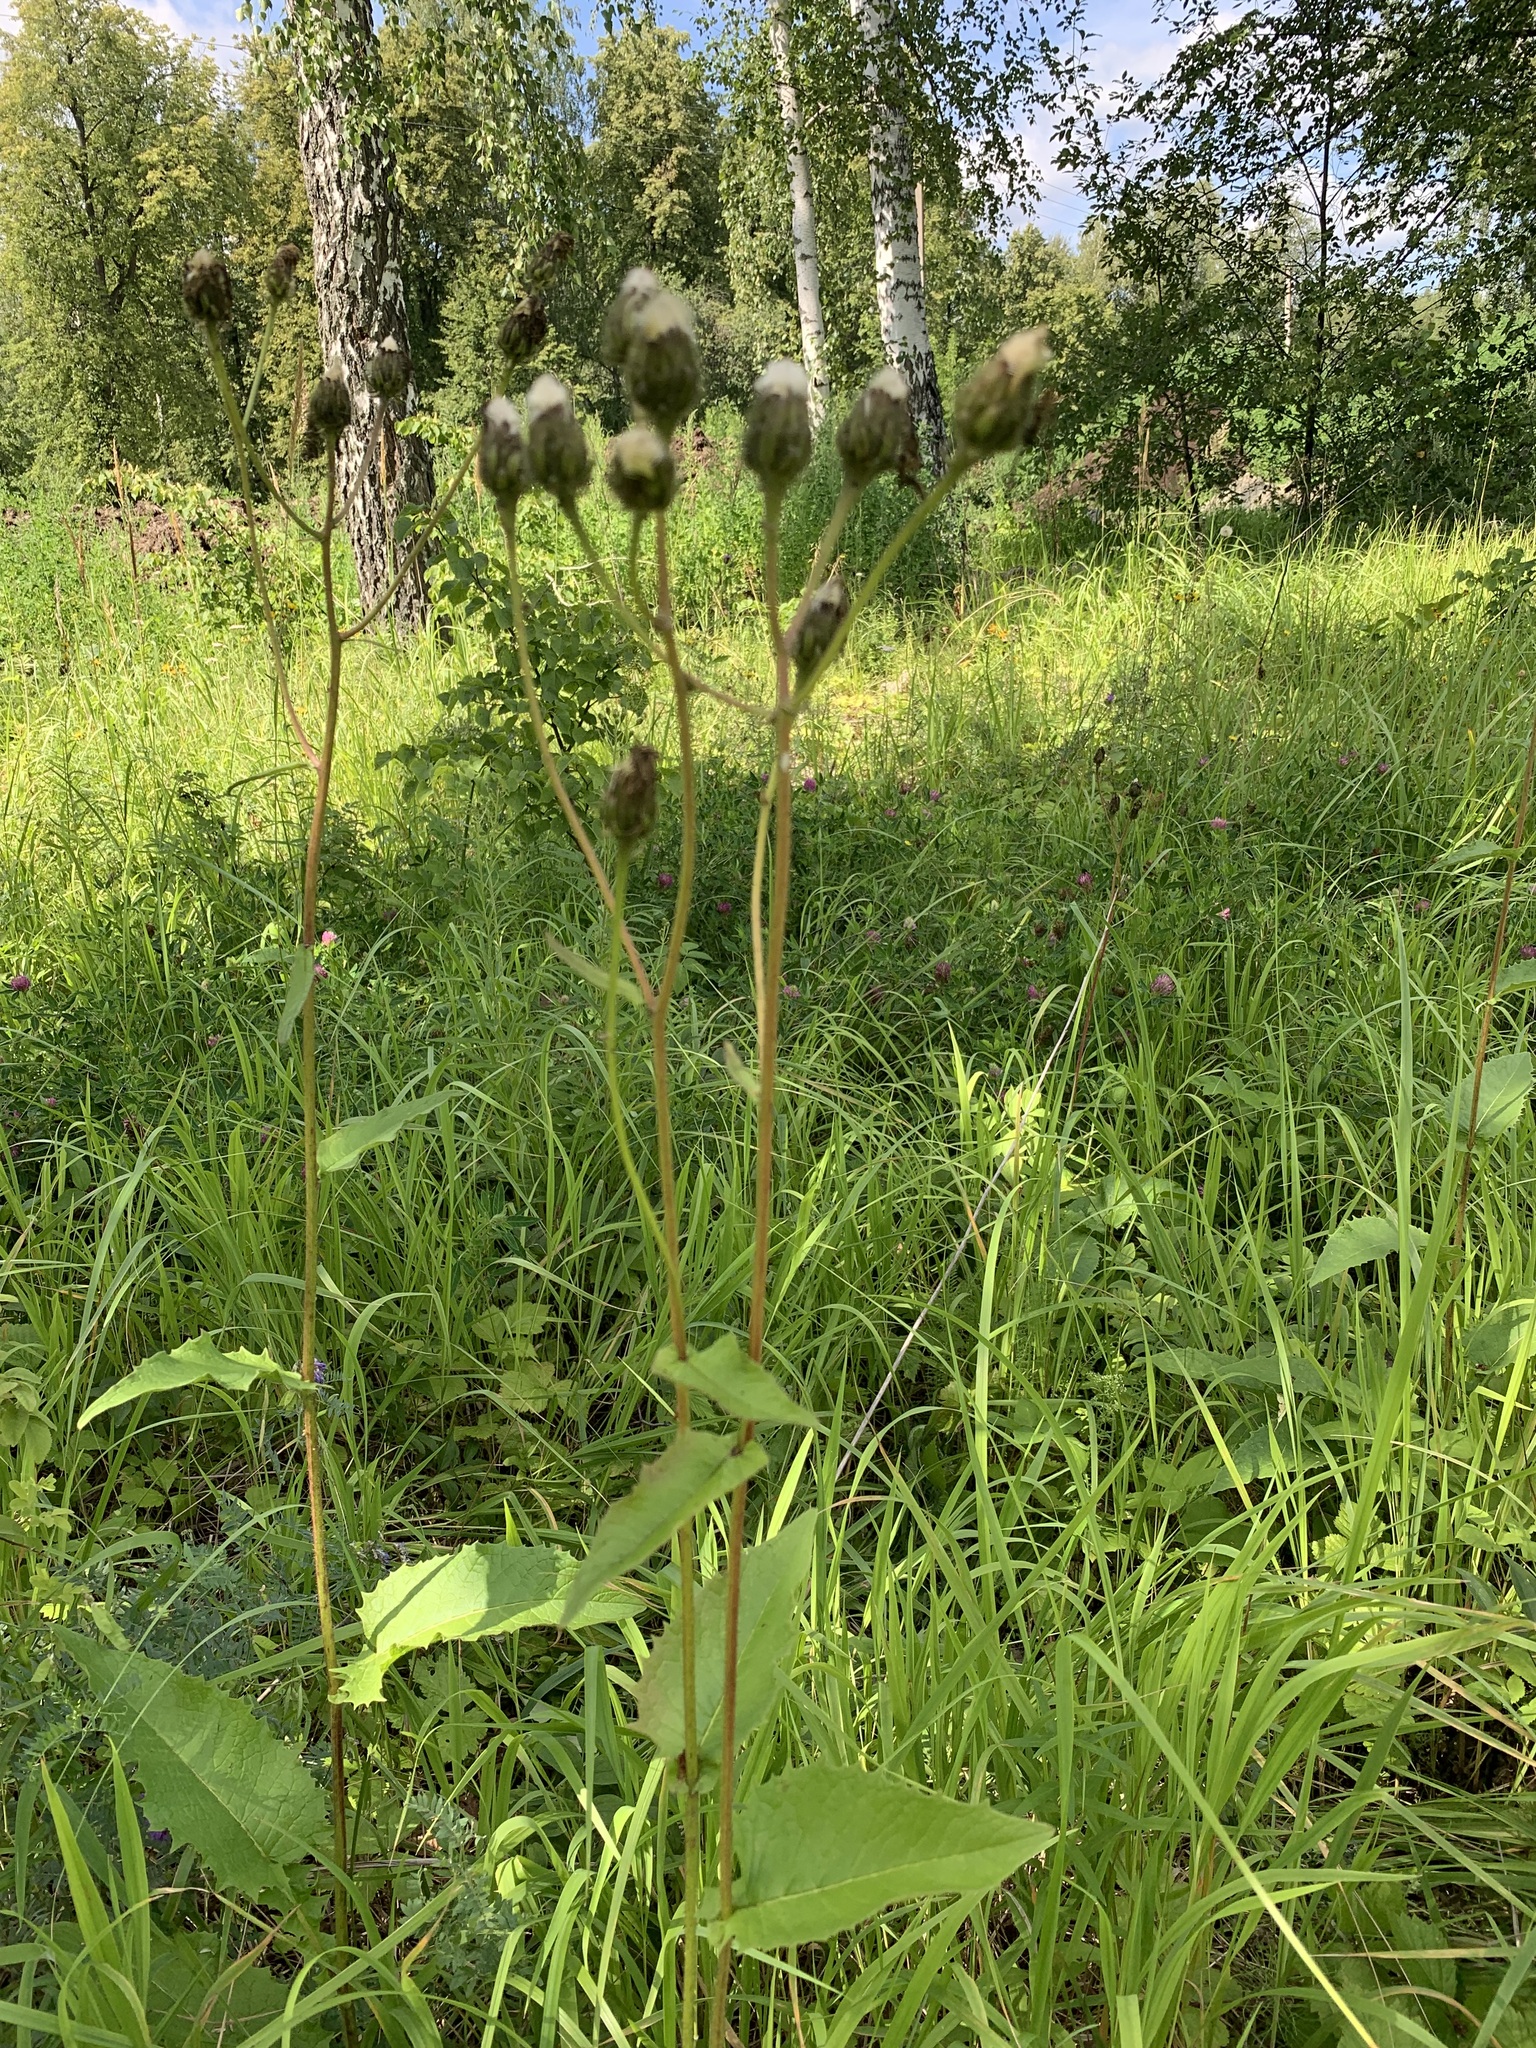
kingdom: Plantae
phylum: Tracheophyta
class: Magnoliopsida
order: Asterales
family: Asteraceae
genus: Crepis
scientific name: Crepis sibirica
